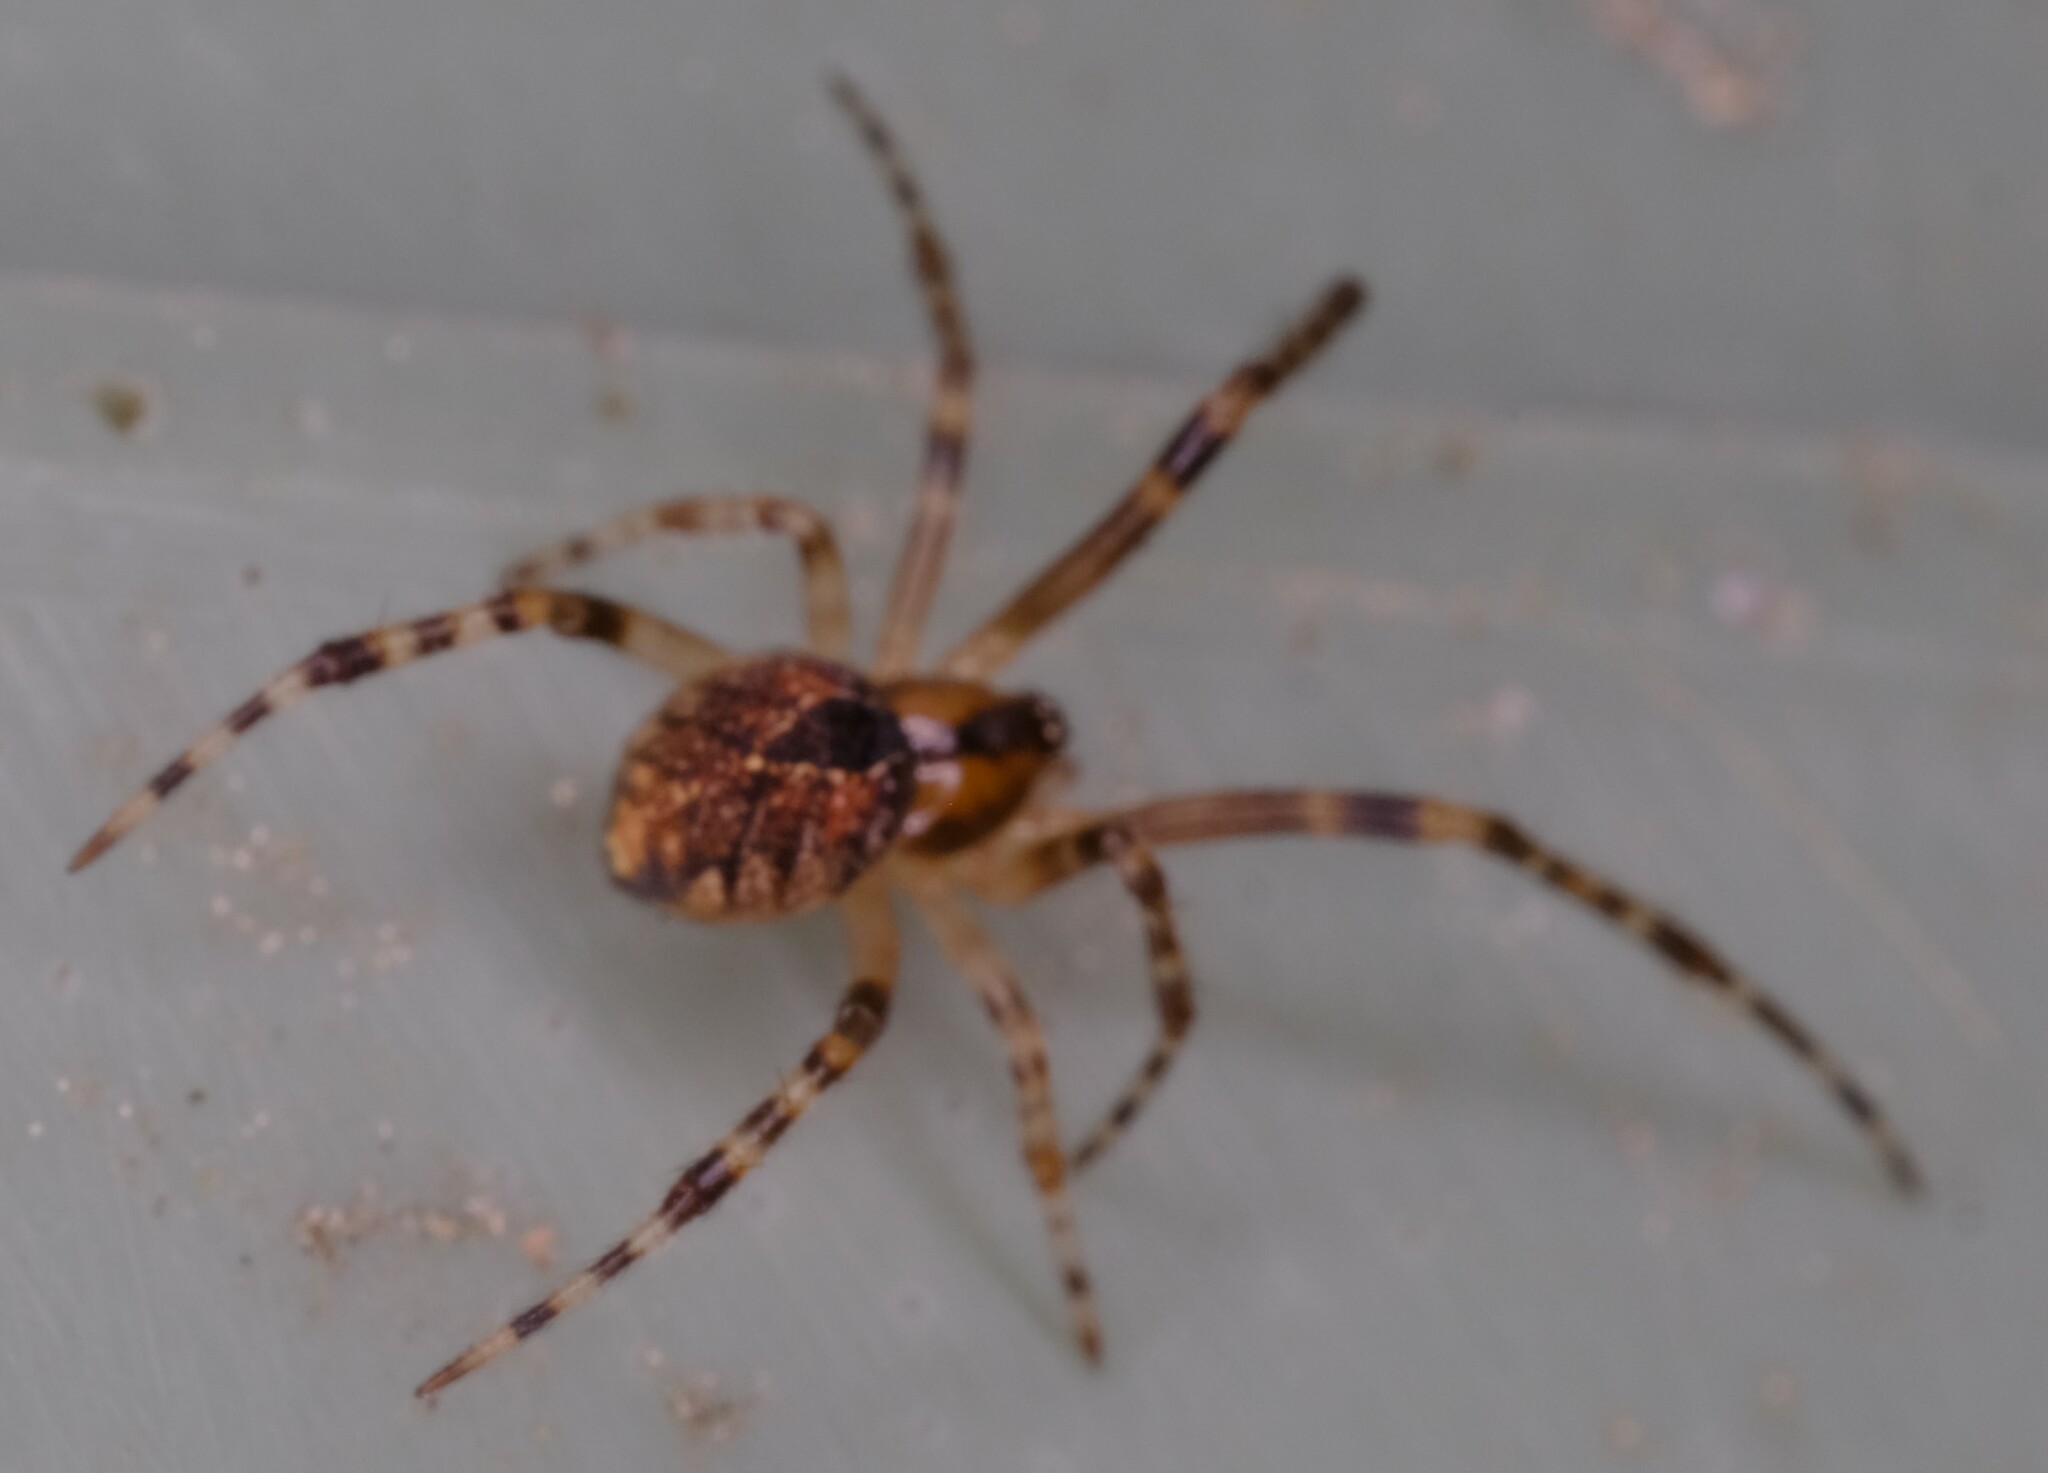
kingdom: Animalia
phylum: Arthropoda
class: Arachnida
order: Araneae
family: Theridiidae
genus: Cryptachaea
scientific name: Cryptachaea veruculata
